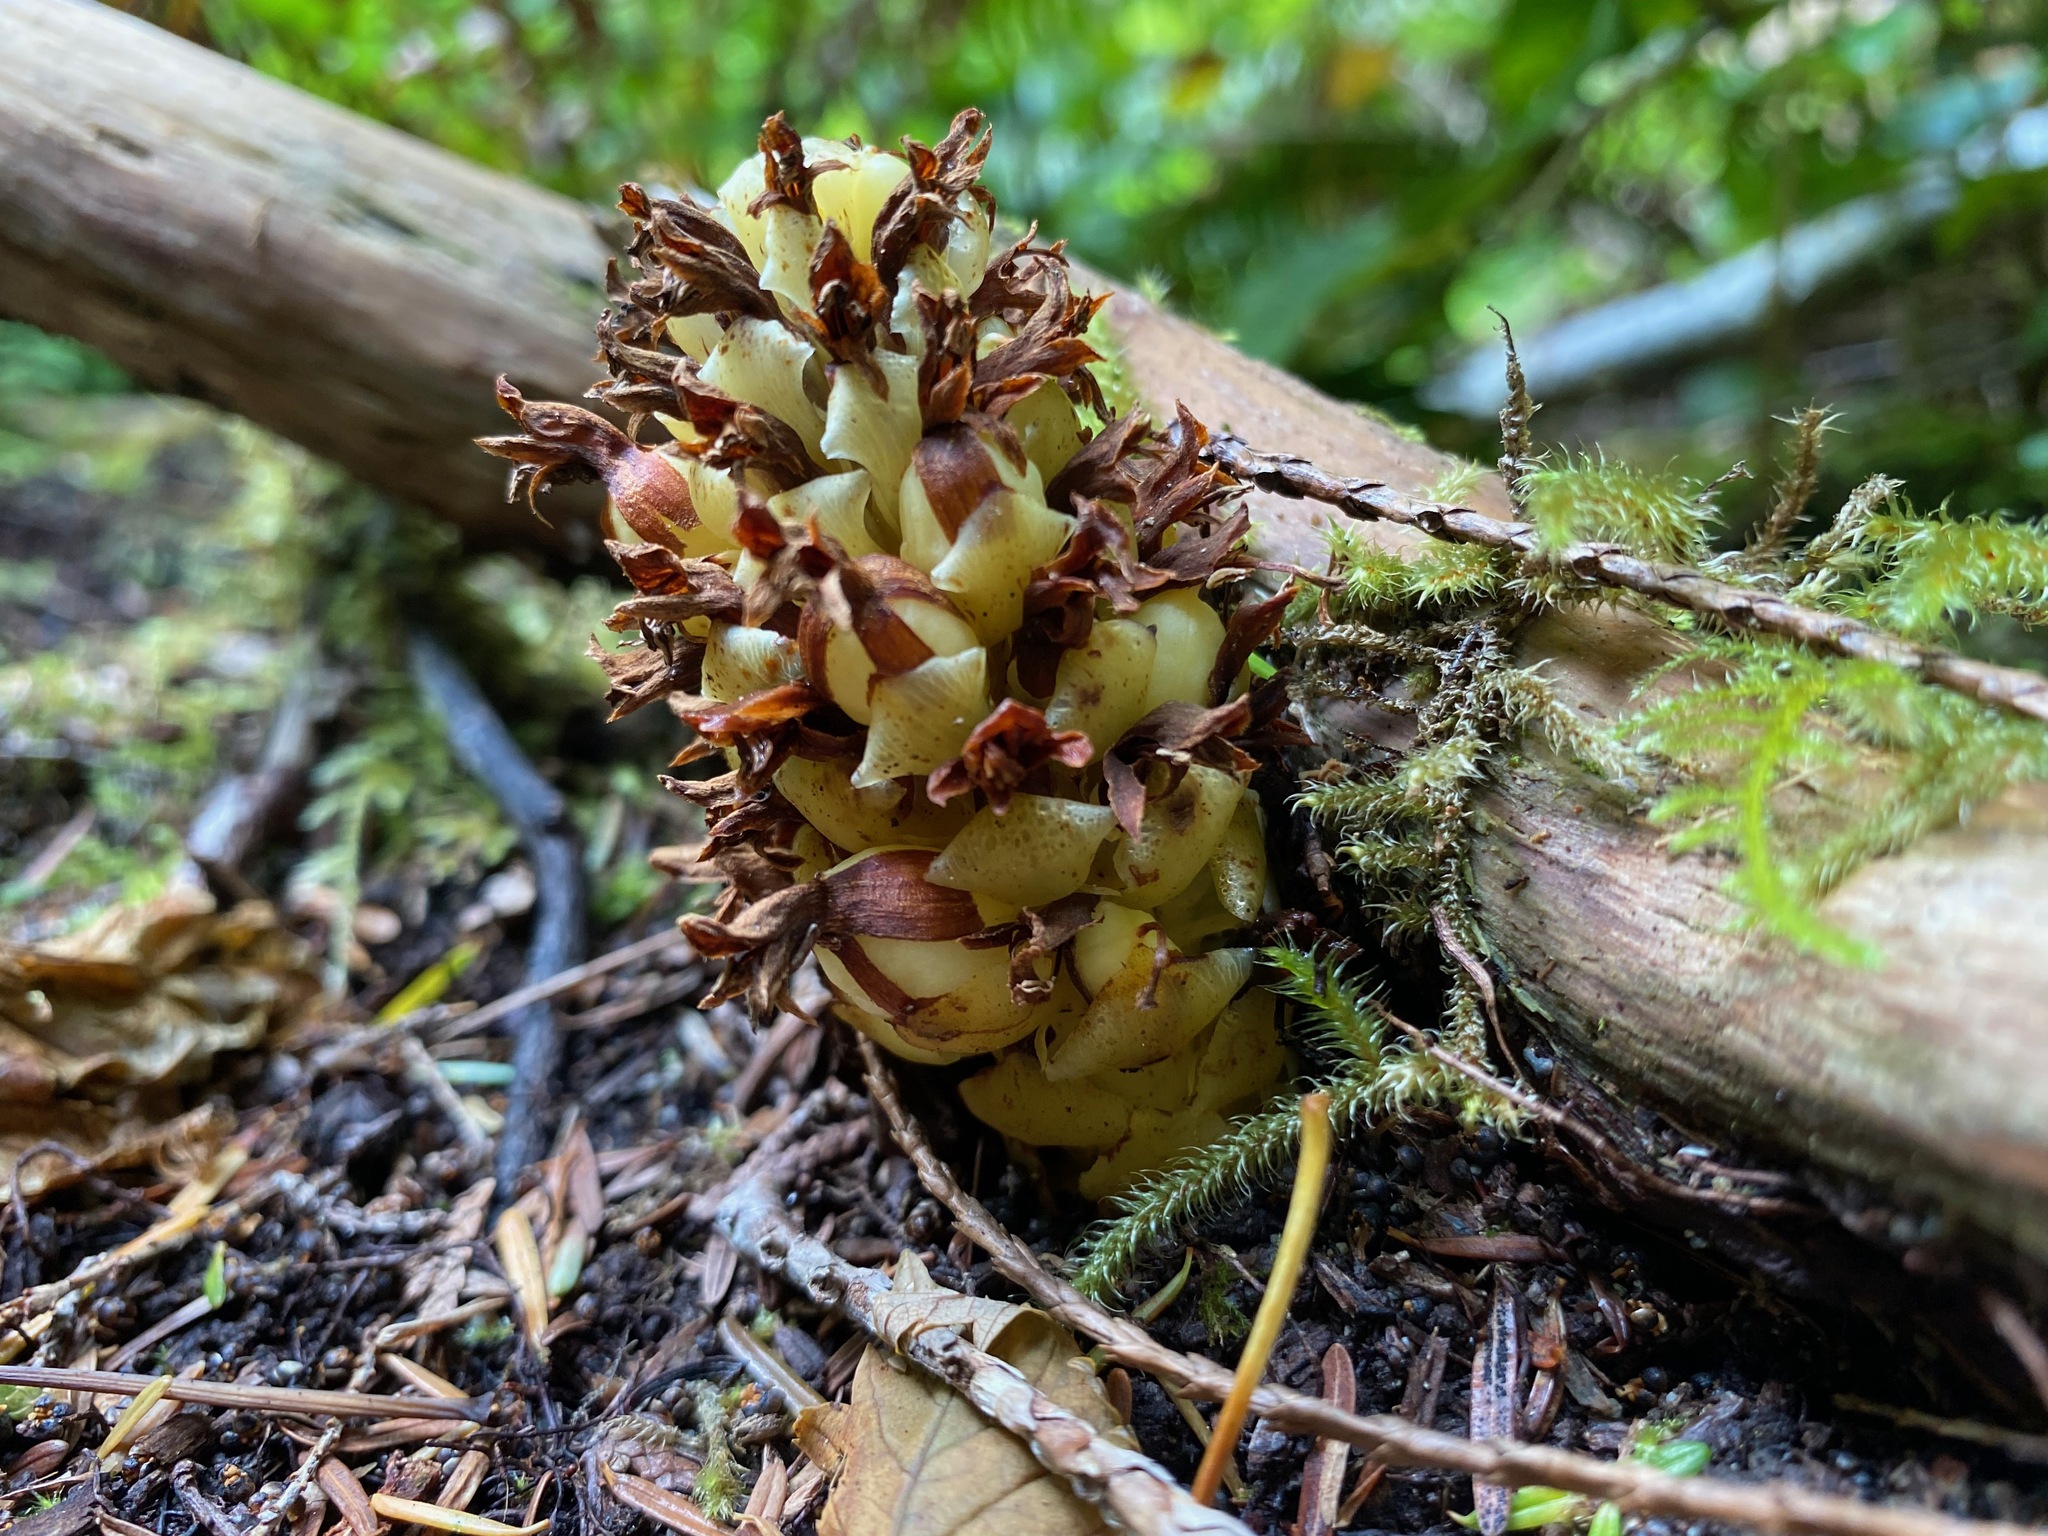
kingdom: Plantae
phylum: Tracheophyta
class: Magnoliopsida
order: Lamiales
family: Orobanchaceae
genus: Kopsiopsis
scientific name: Kopsiopsis hookeri
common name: Hooker's groundcone
